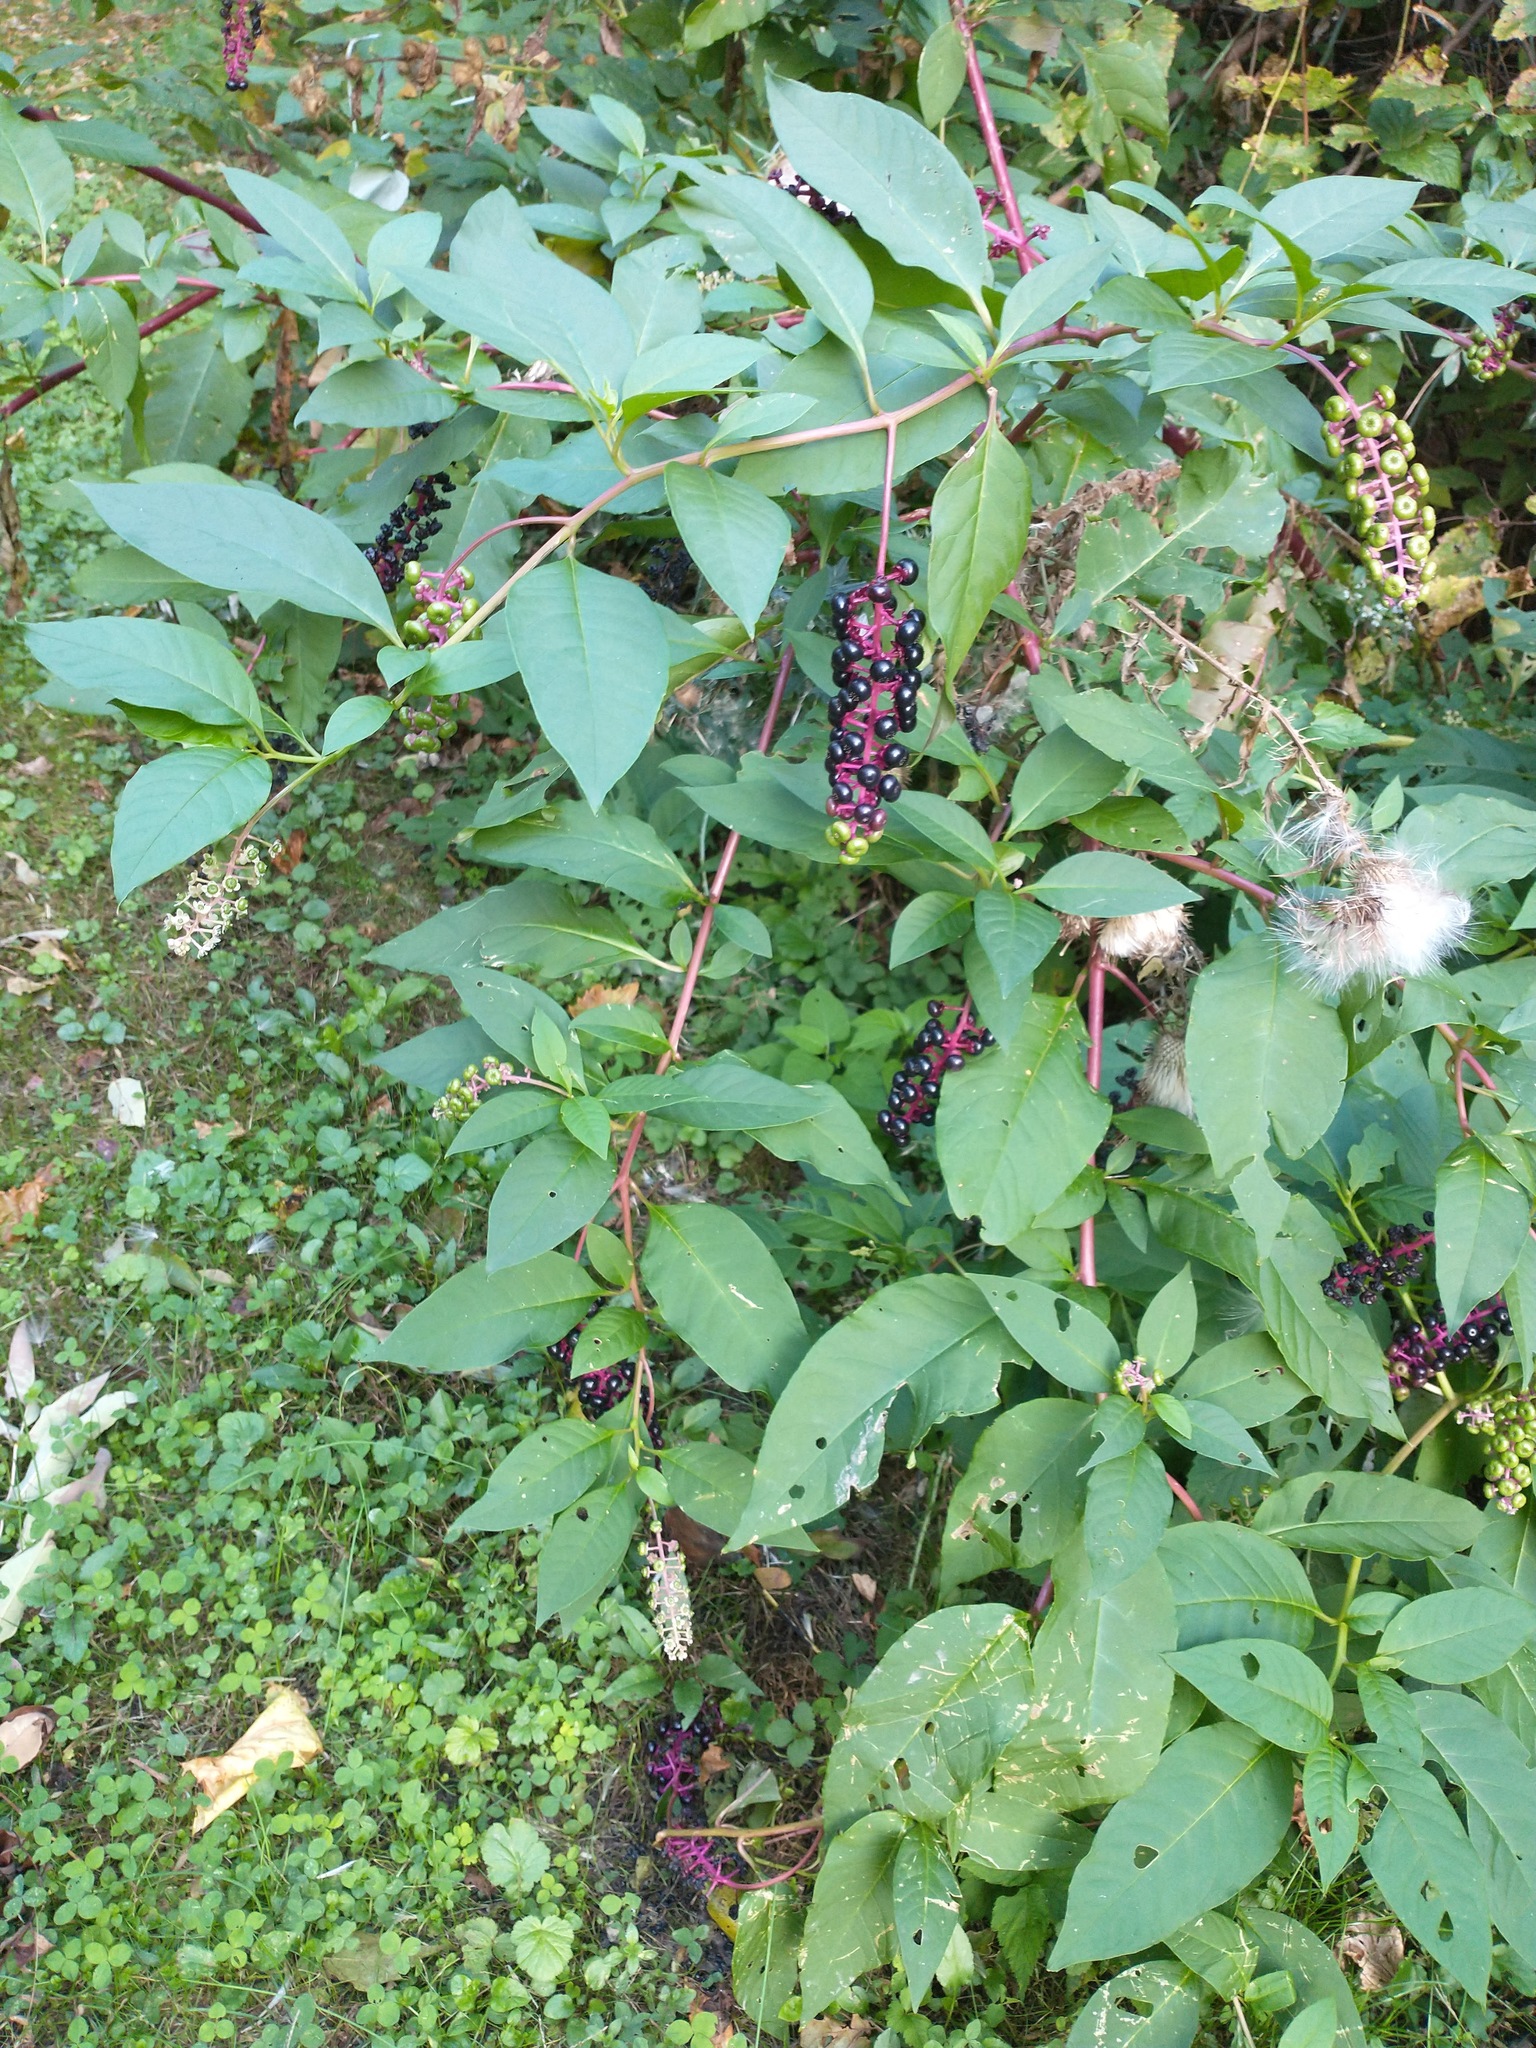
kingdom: Plantae
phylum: Tracheophyta
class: Magnoliopsida
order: Caryophyllales
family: Phytolaccaceae
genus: Phytolacca
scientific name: Phytolacca americana
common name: American pokeweed
